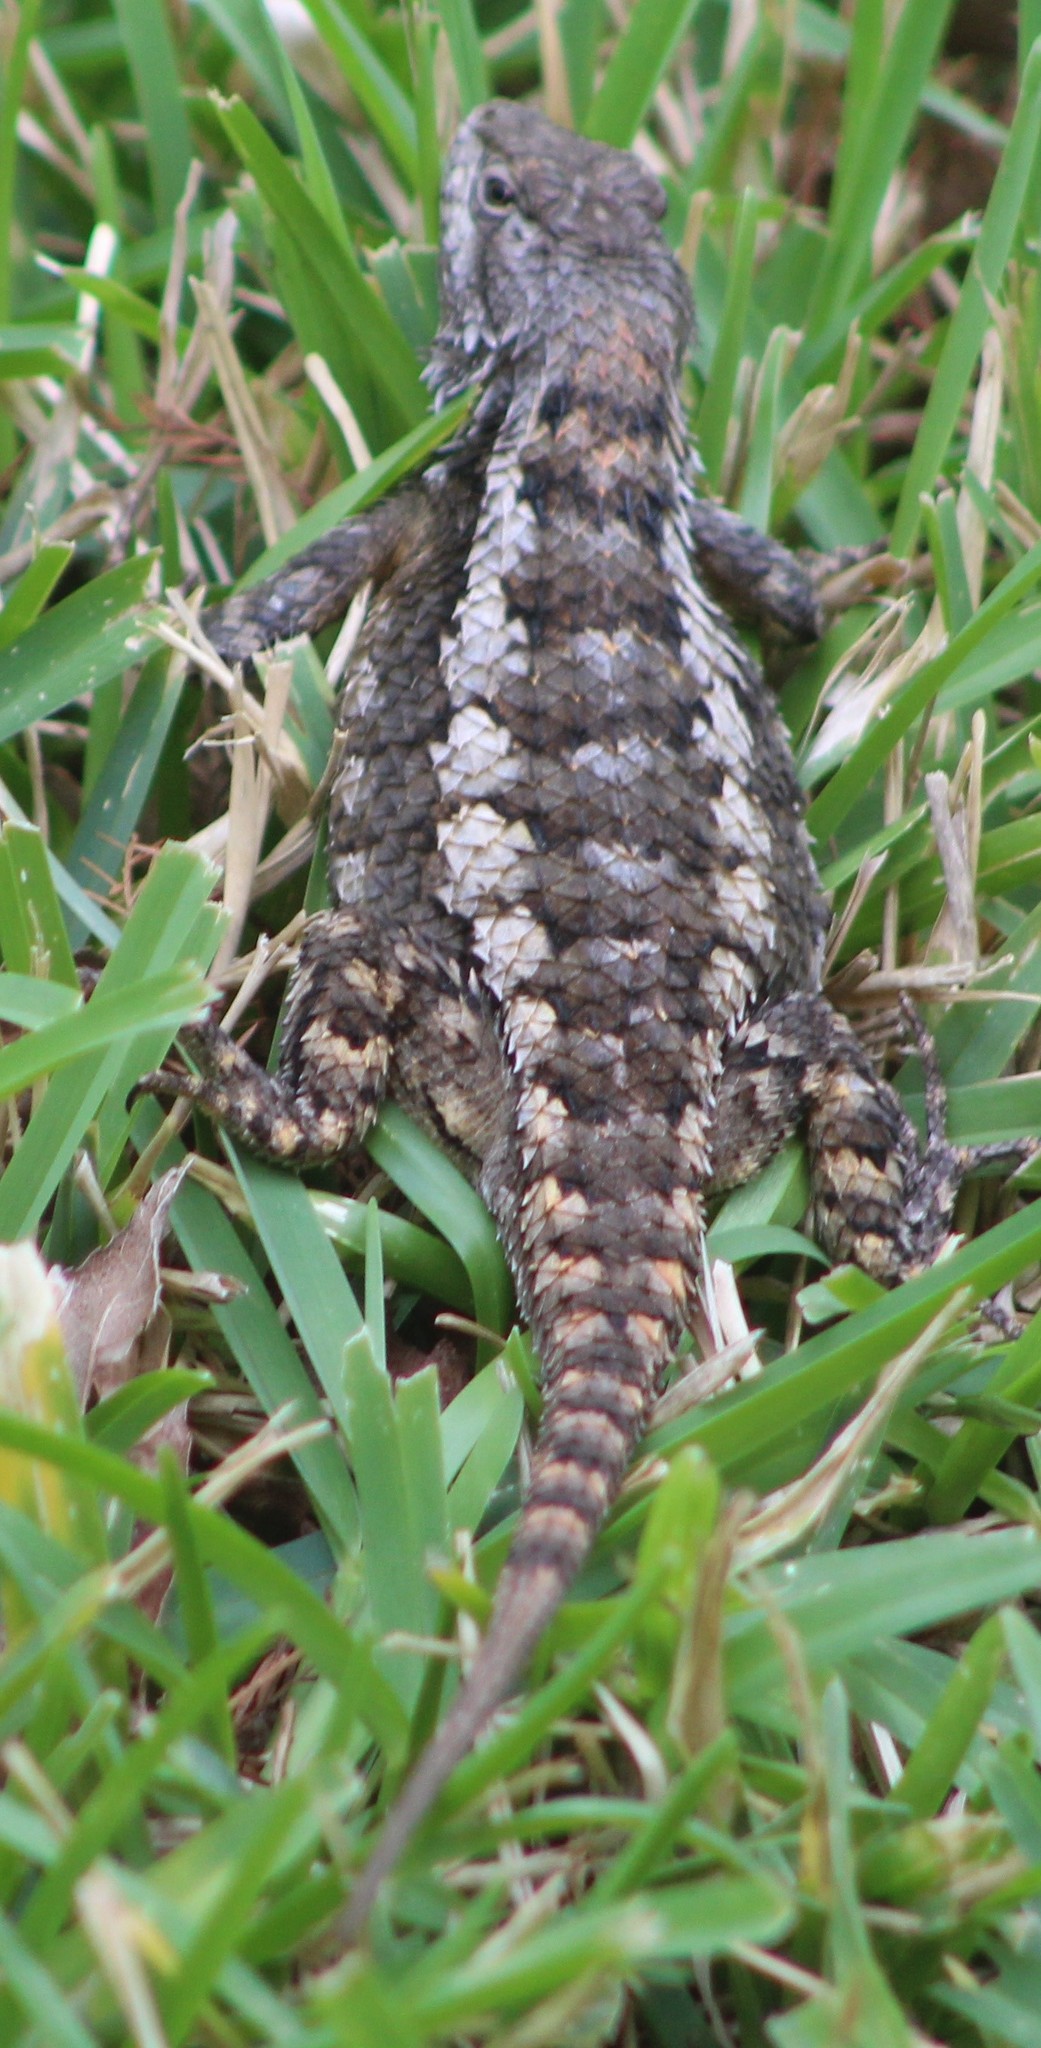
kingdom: Animalia
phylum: Chordata
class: Squamata
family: Phrynosomatidae
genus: Sceloporus
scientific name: Sceloporus olivaceus
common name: Texas spiny lizard
